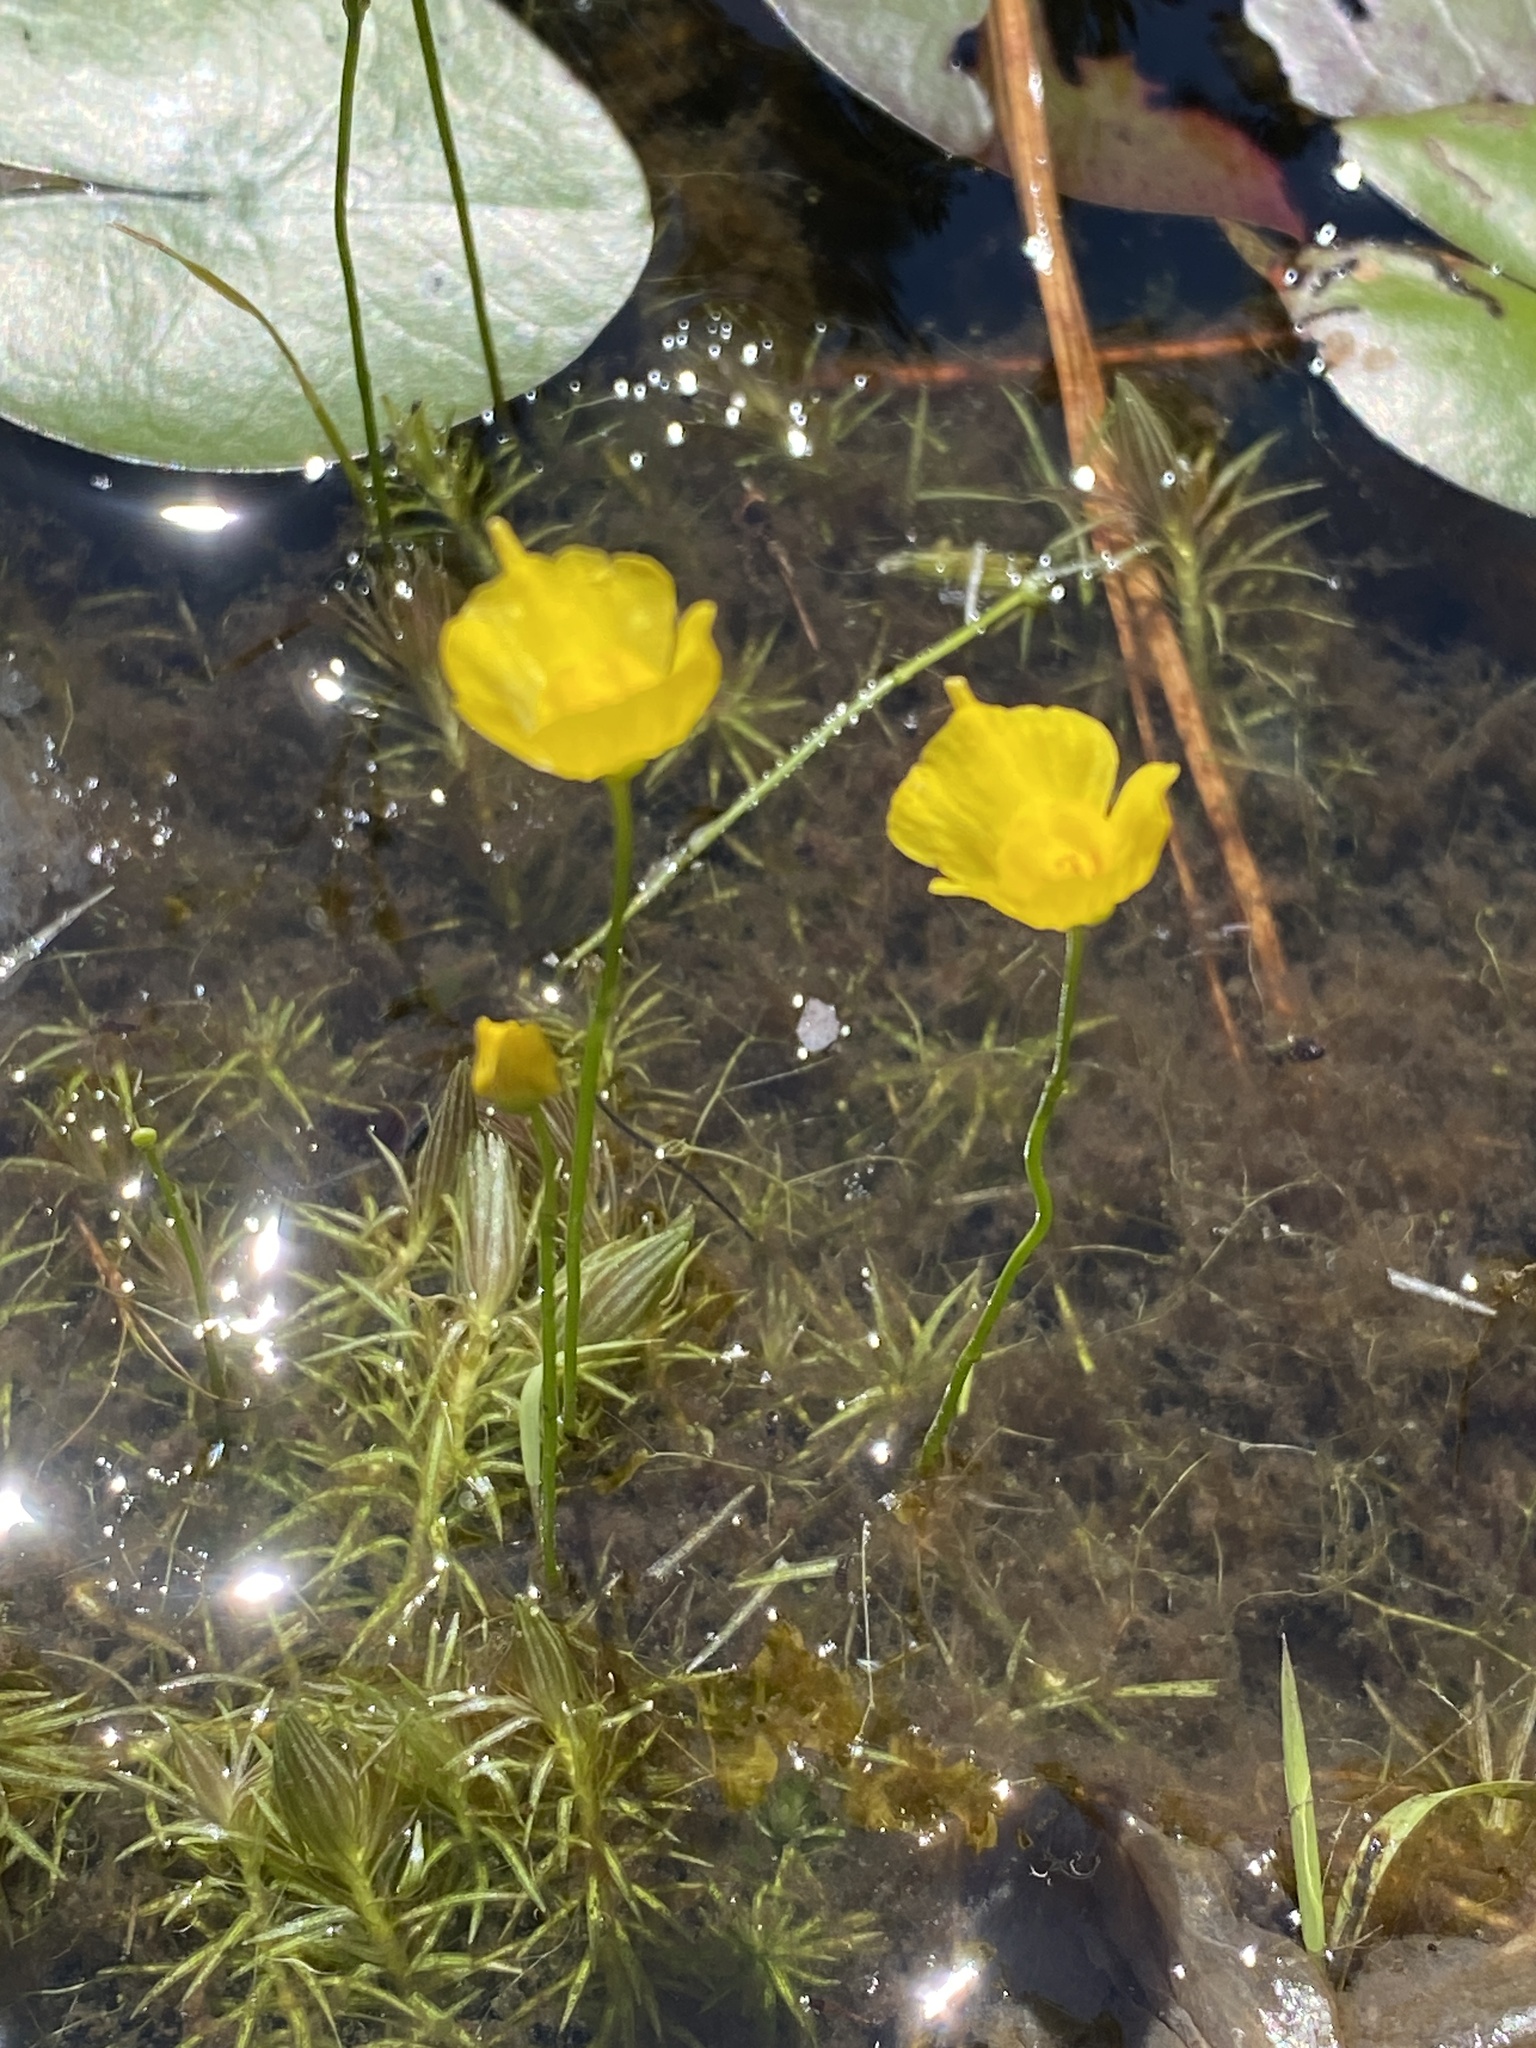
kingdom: Plantae
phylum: Tracheophyta
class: Magnoliopsida
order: Lamiales
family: Lentibulariaceae
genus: Utricularia
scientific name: Utricularia gibba
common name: Humped bladderwort
